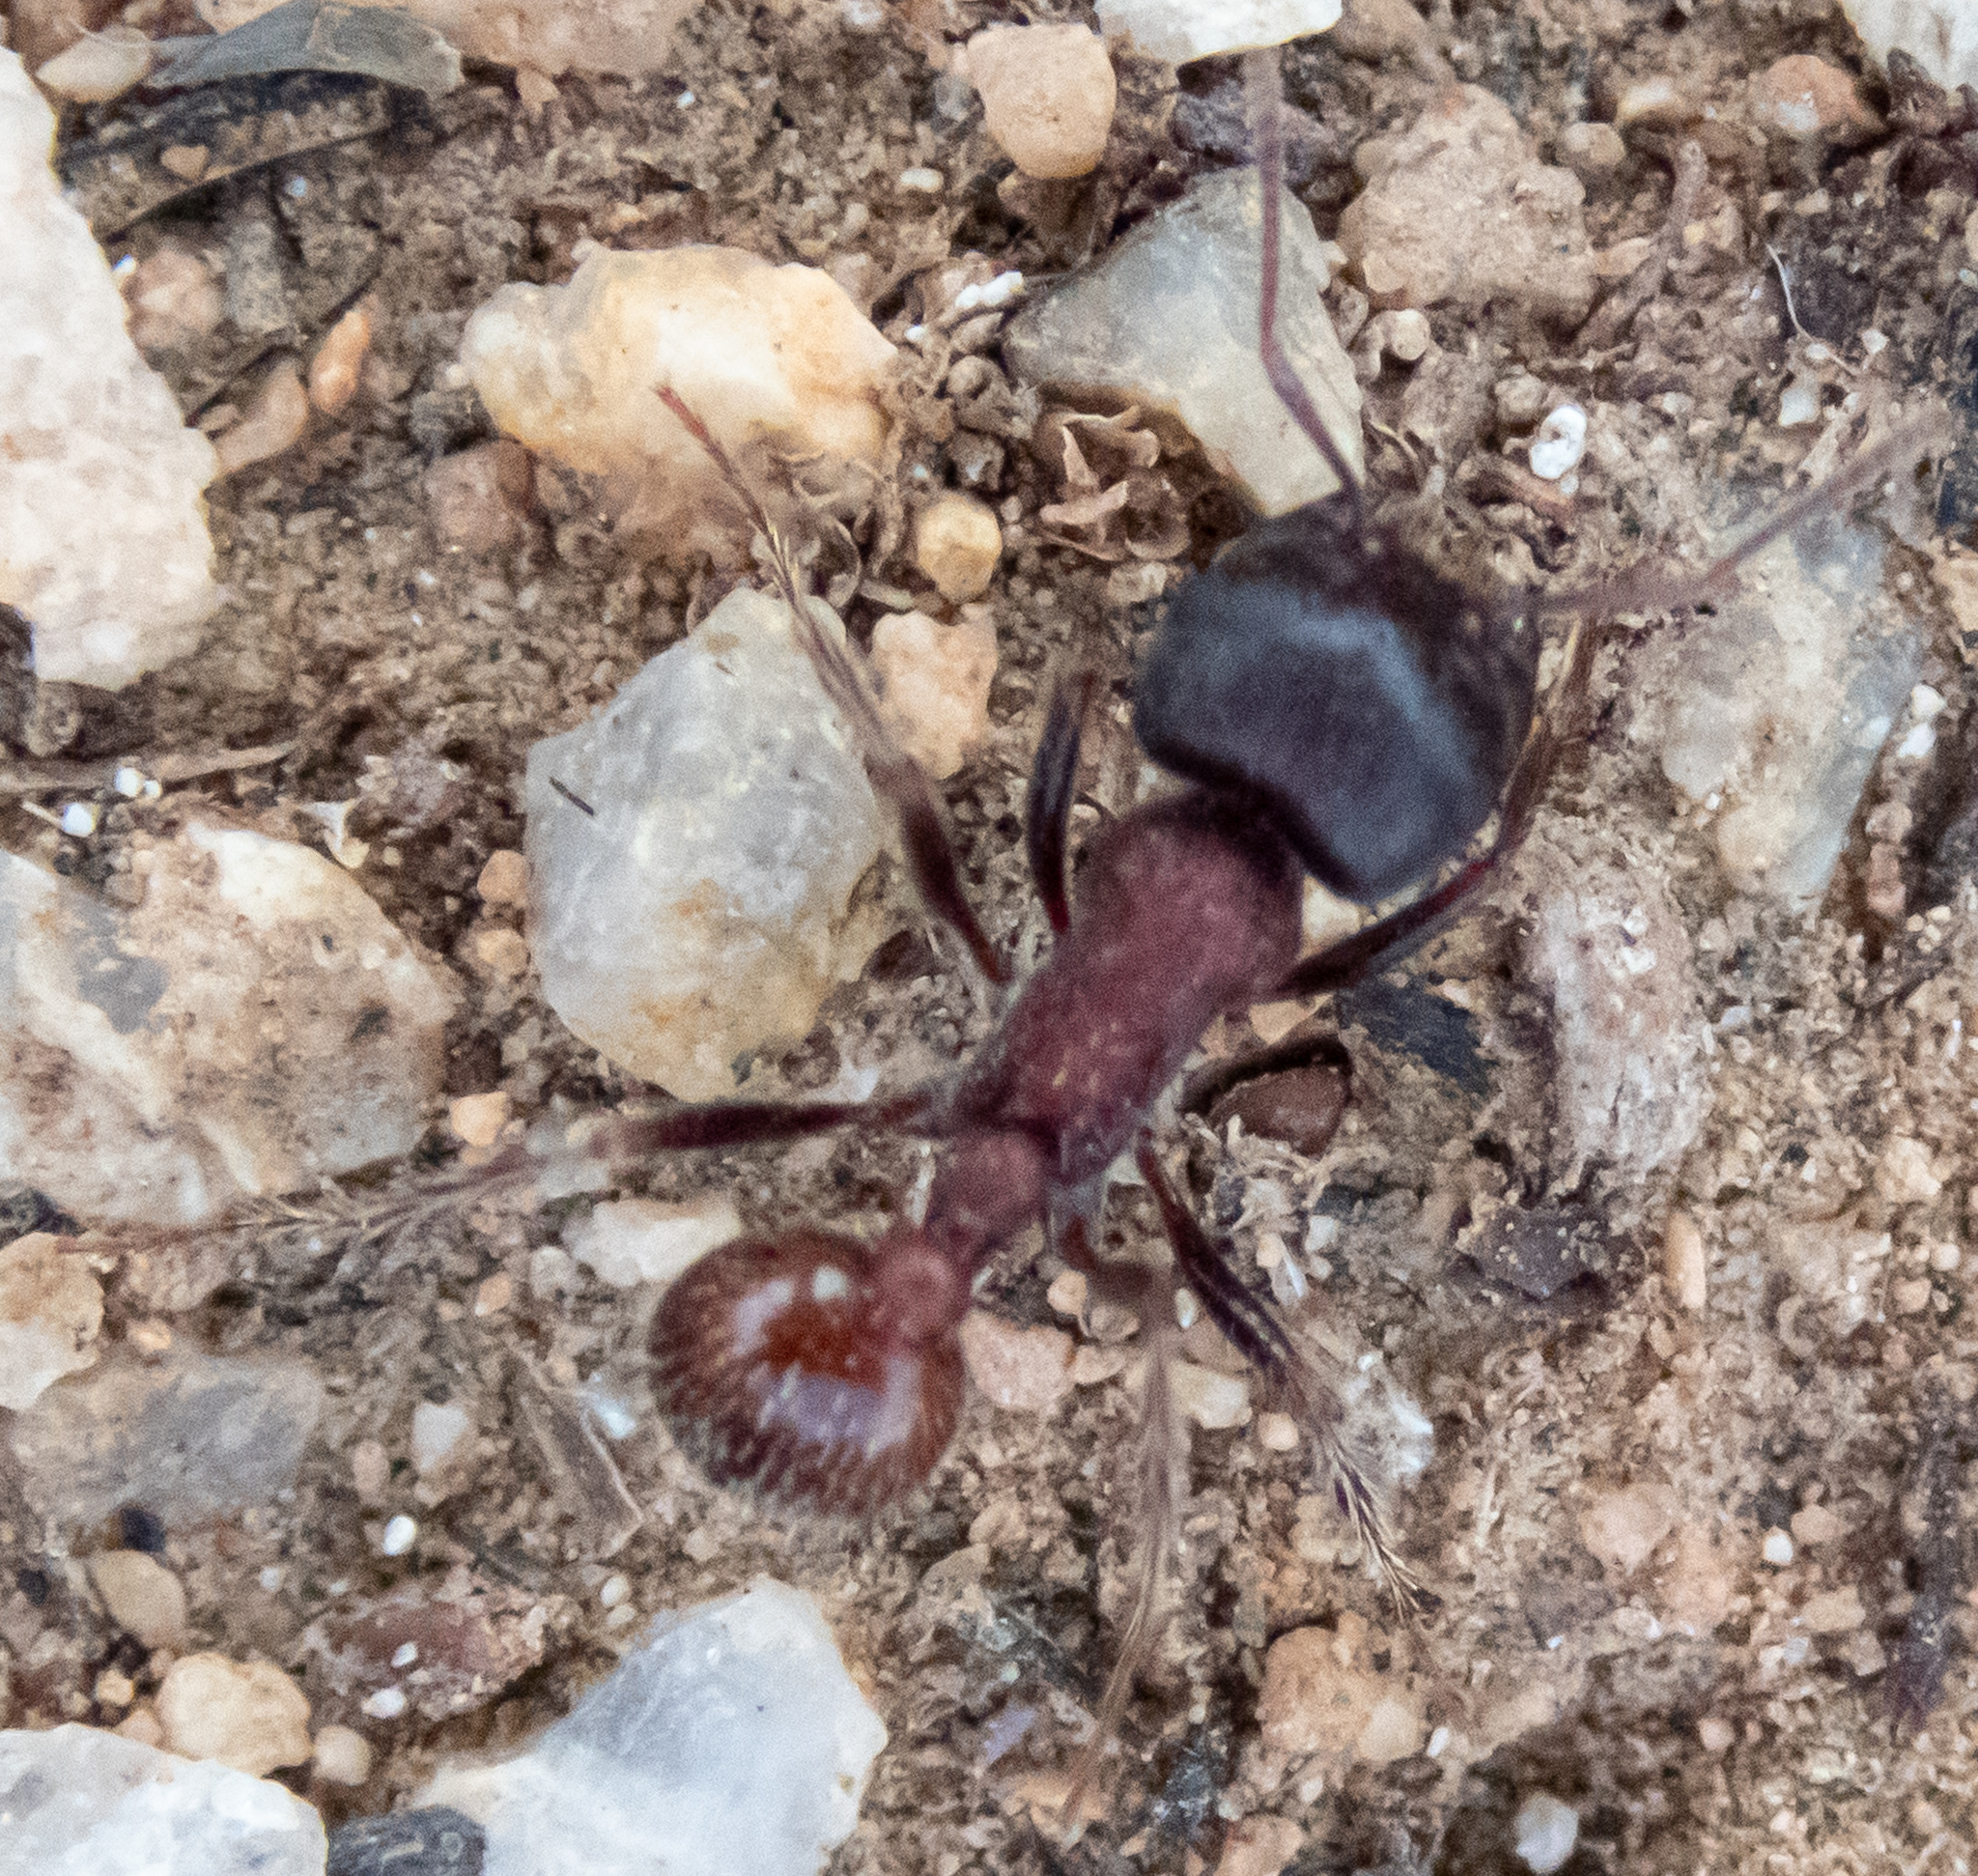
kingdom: Animalia
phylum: Arthropoda
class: Insecta
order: Hymenoptera
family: Formicidae
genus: Pogonomyrmex
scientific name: Pogonomyrmex rugosus
